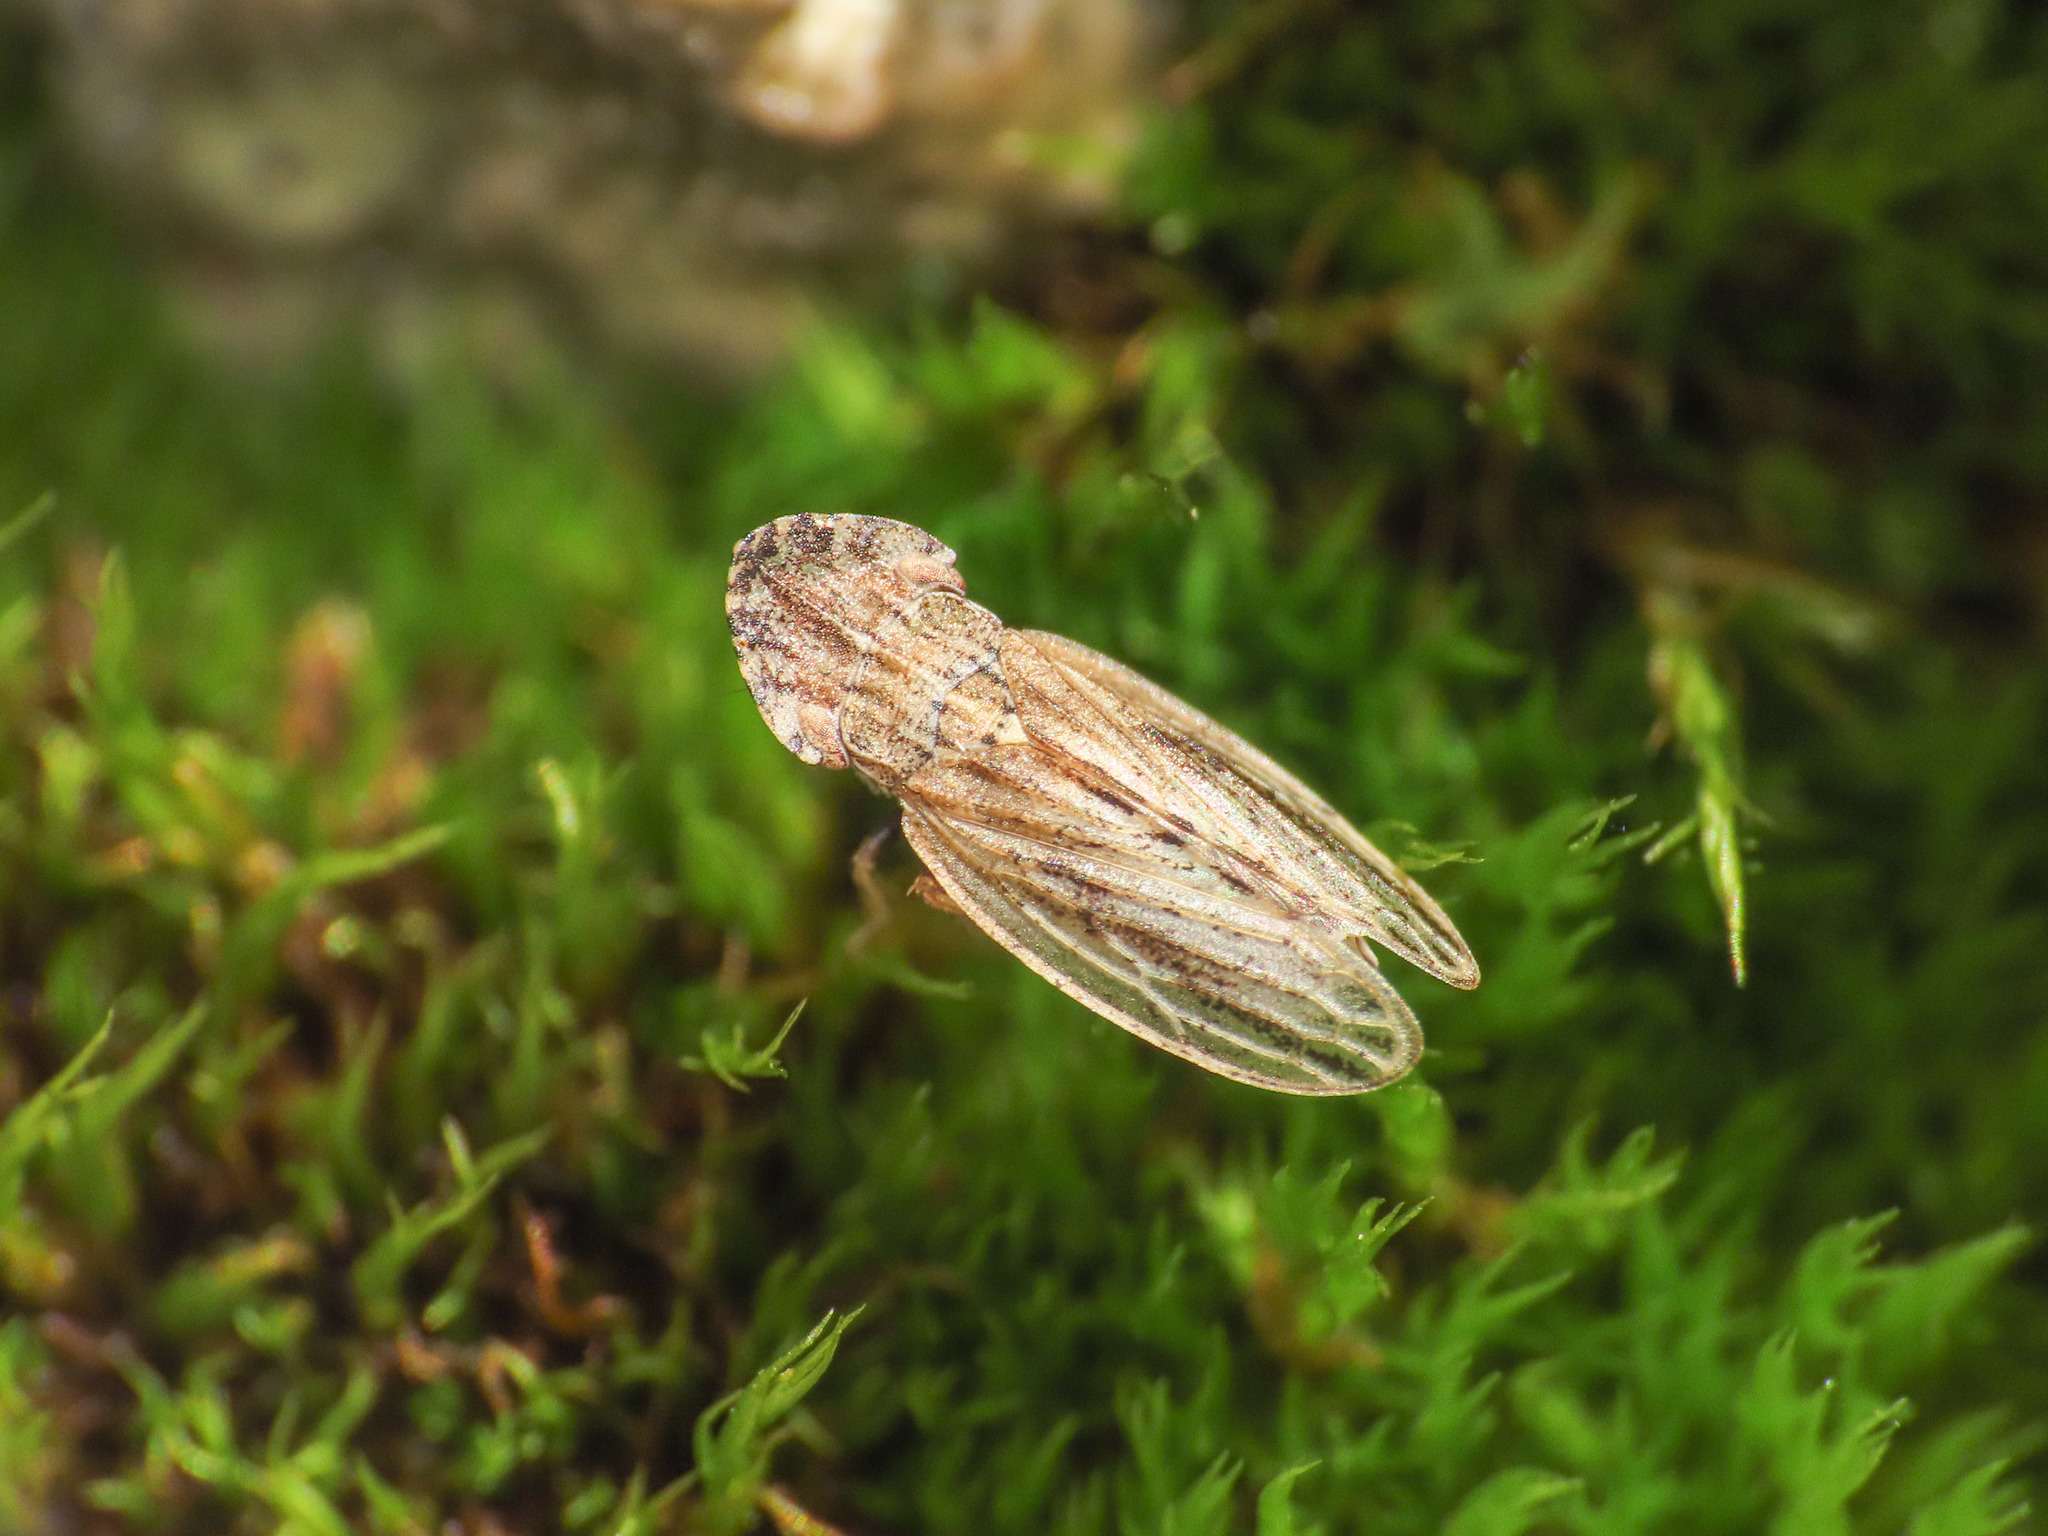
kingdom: Animalia
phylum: Arthropoda
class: Insecta
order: Hemiptera
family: Cicadellidae
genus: Eupelix
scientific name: Eupelix cuspidata
